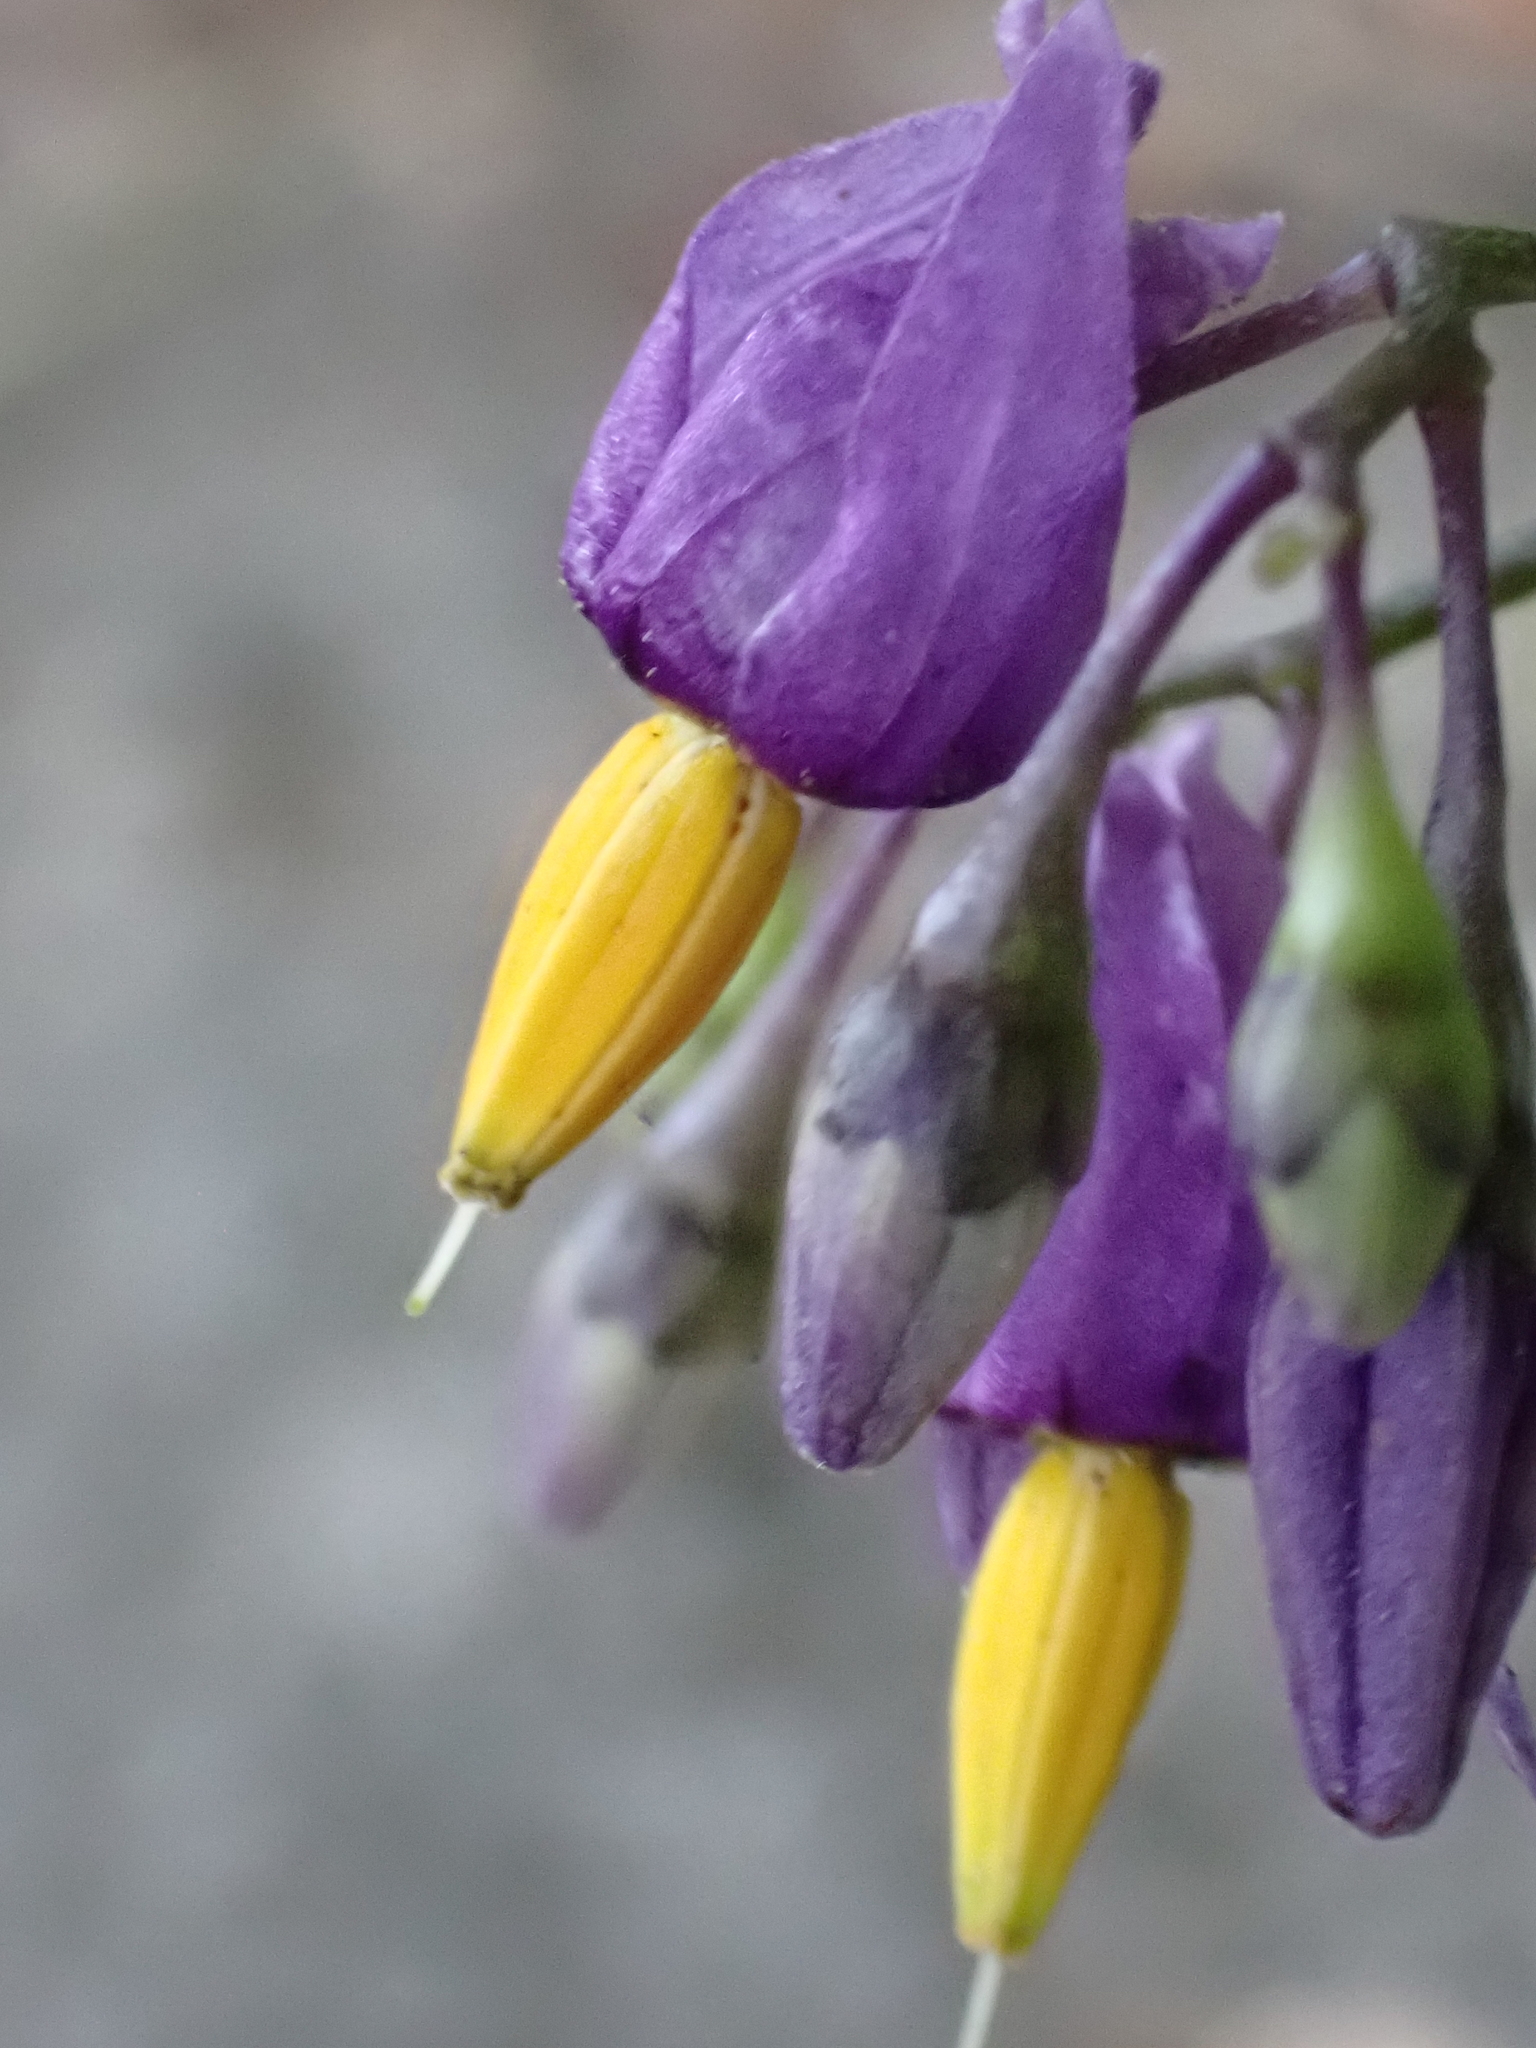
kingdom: Plantae
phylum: Tracheophyta
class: Magnoliopsida
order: Solanales
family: Solanaceae
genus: Solanum
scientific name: Solanum dulcamara
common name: Climbing nightshade
